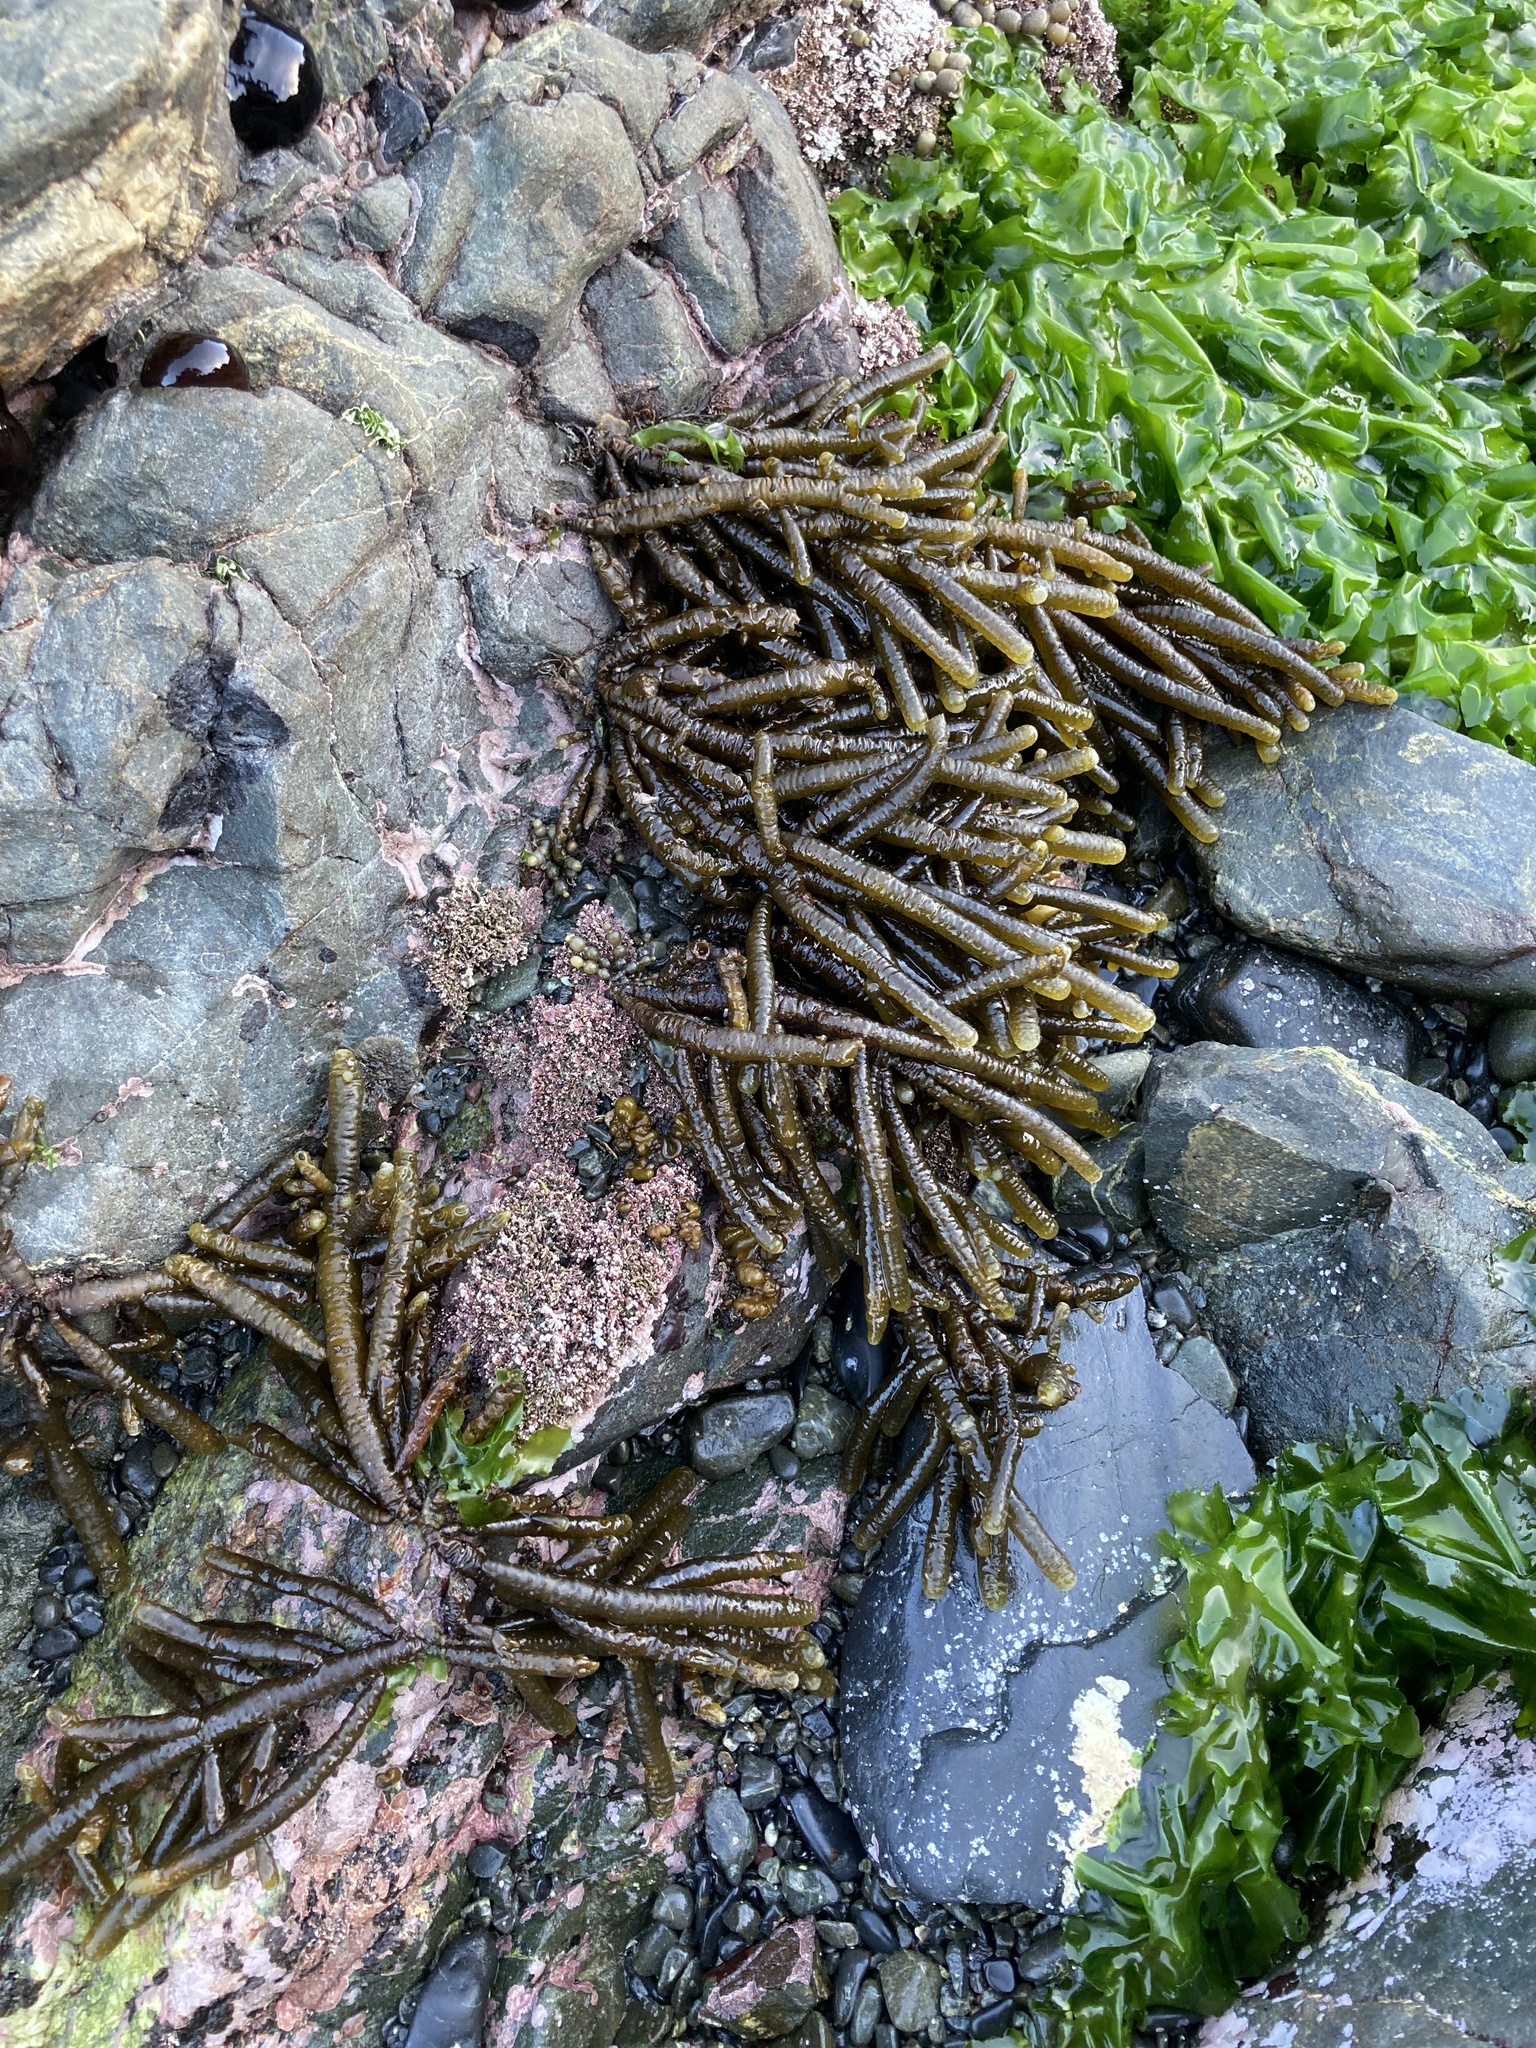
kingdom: Chromista
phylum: Ochrophyta
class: Phaeophyceae
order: Scytothamnales
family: Splachnidiaceae
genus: Splachnidium
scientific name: Splachnidium rugosum
